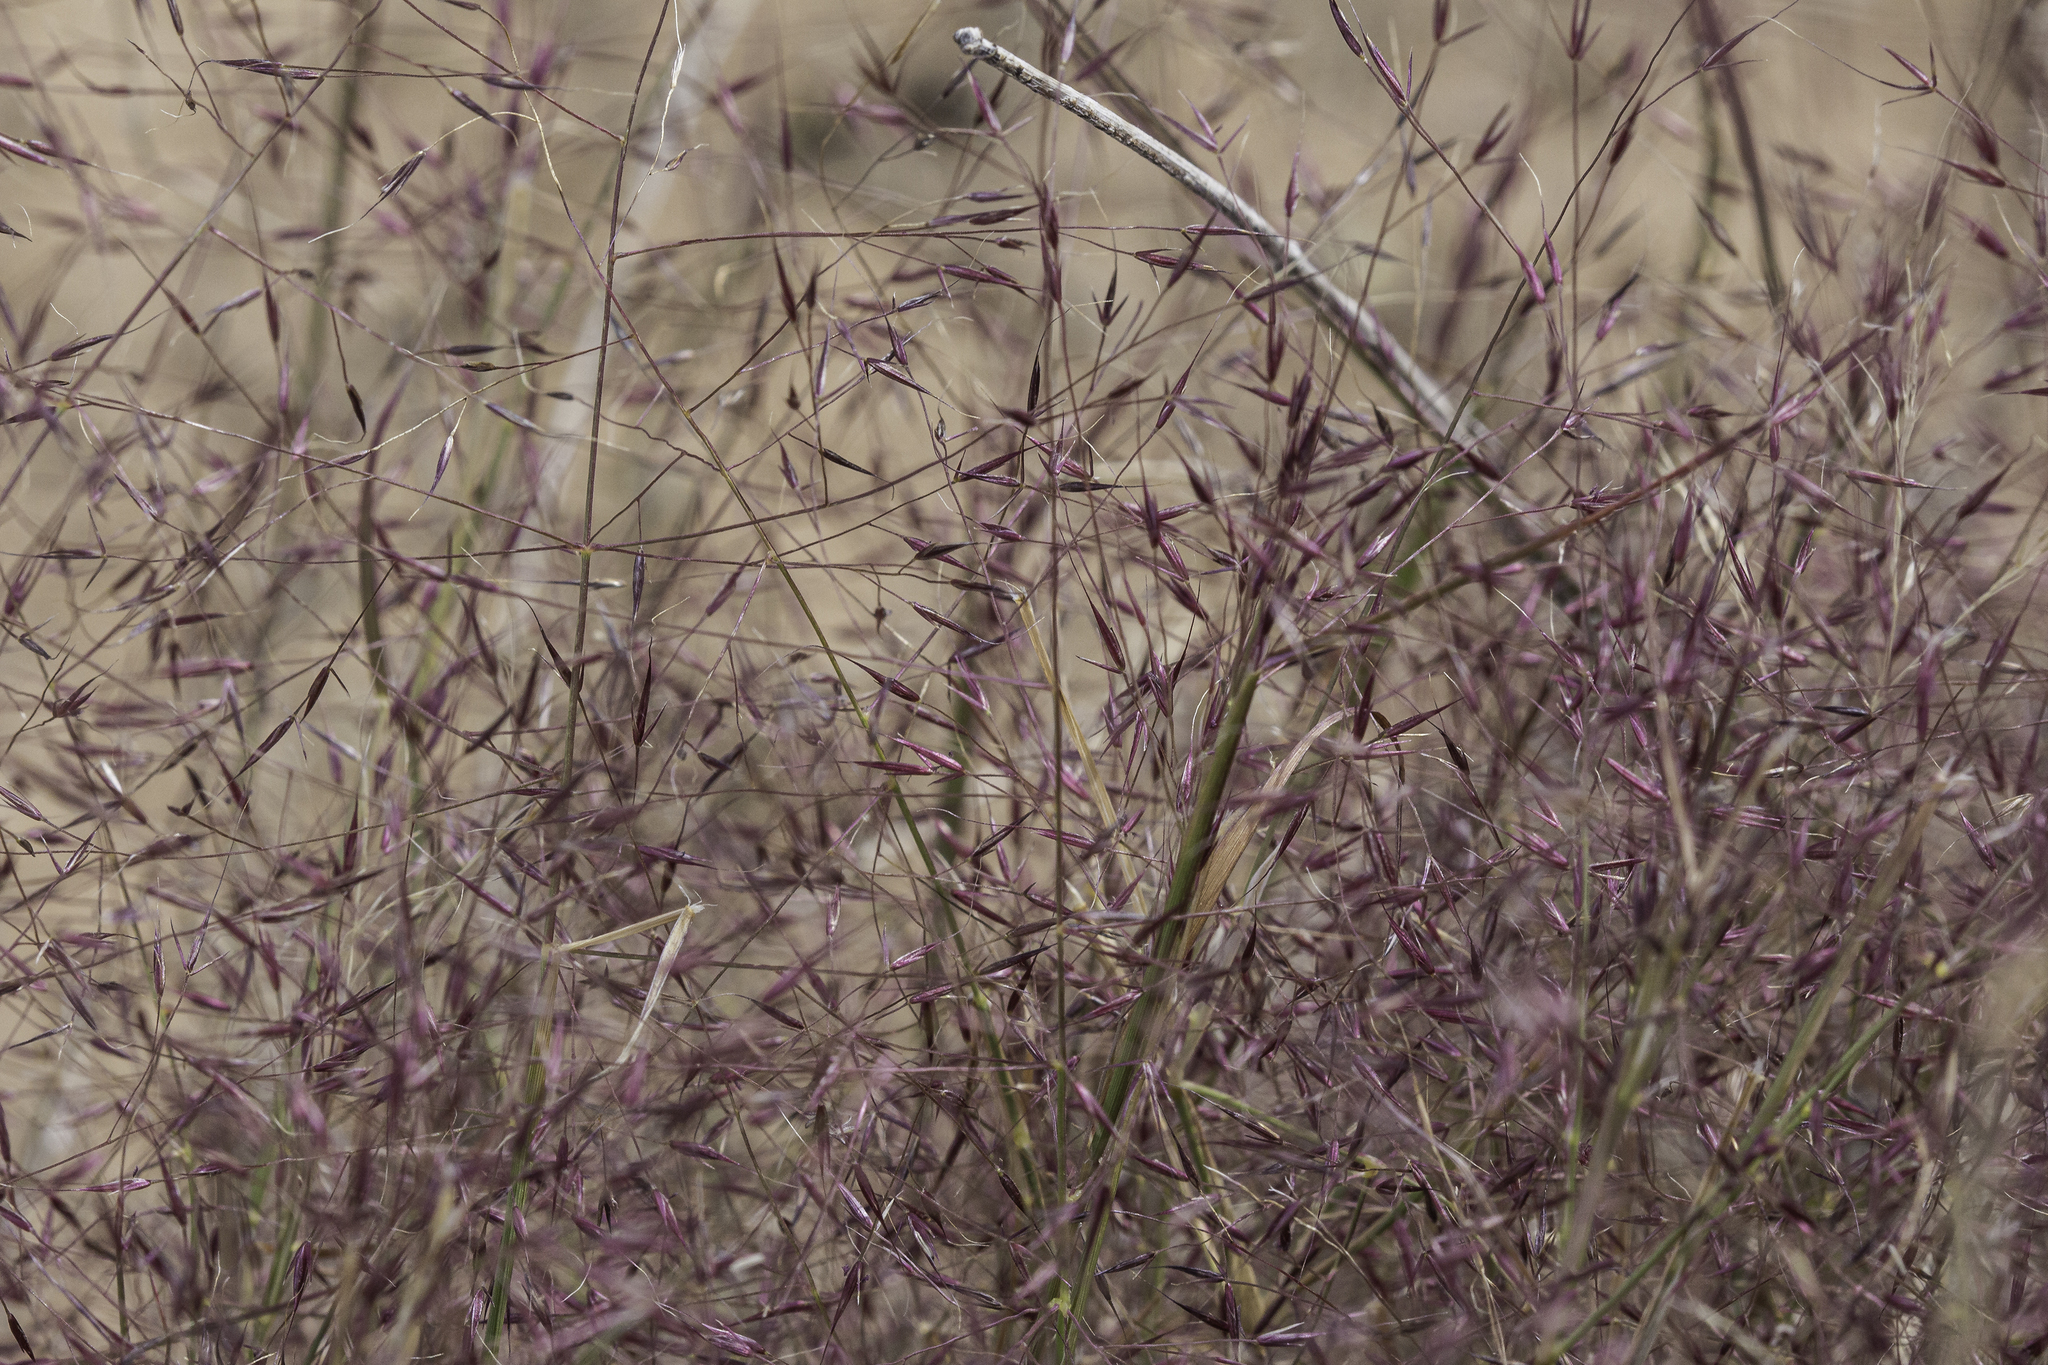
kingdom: Plantae
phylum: Tracheophyta
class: Liliopsida
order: Poales
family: Poaceae
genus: Muhlenbergia
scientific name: Muhlenbergia porteri
